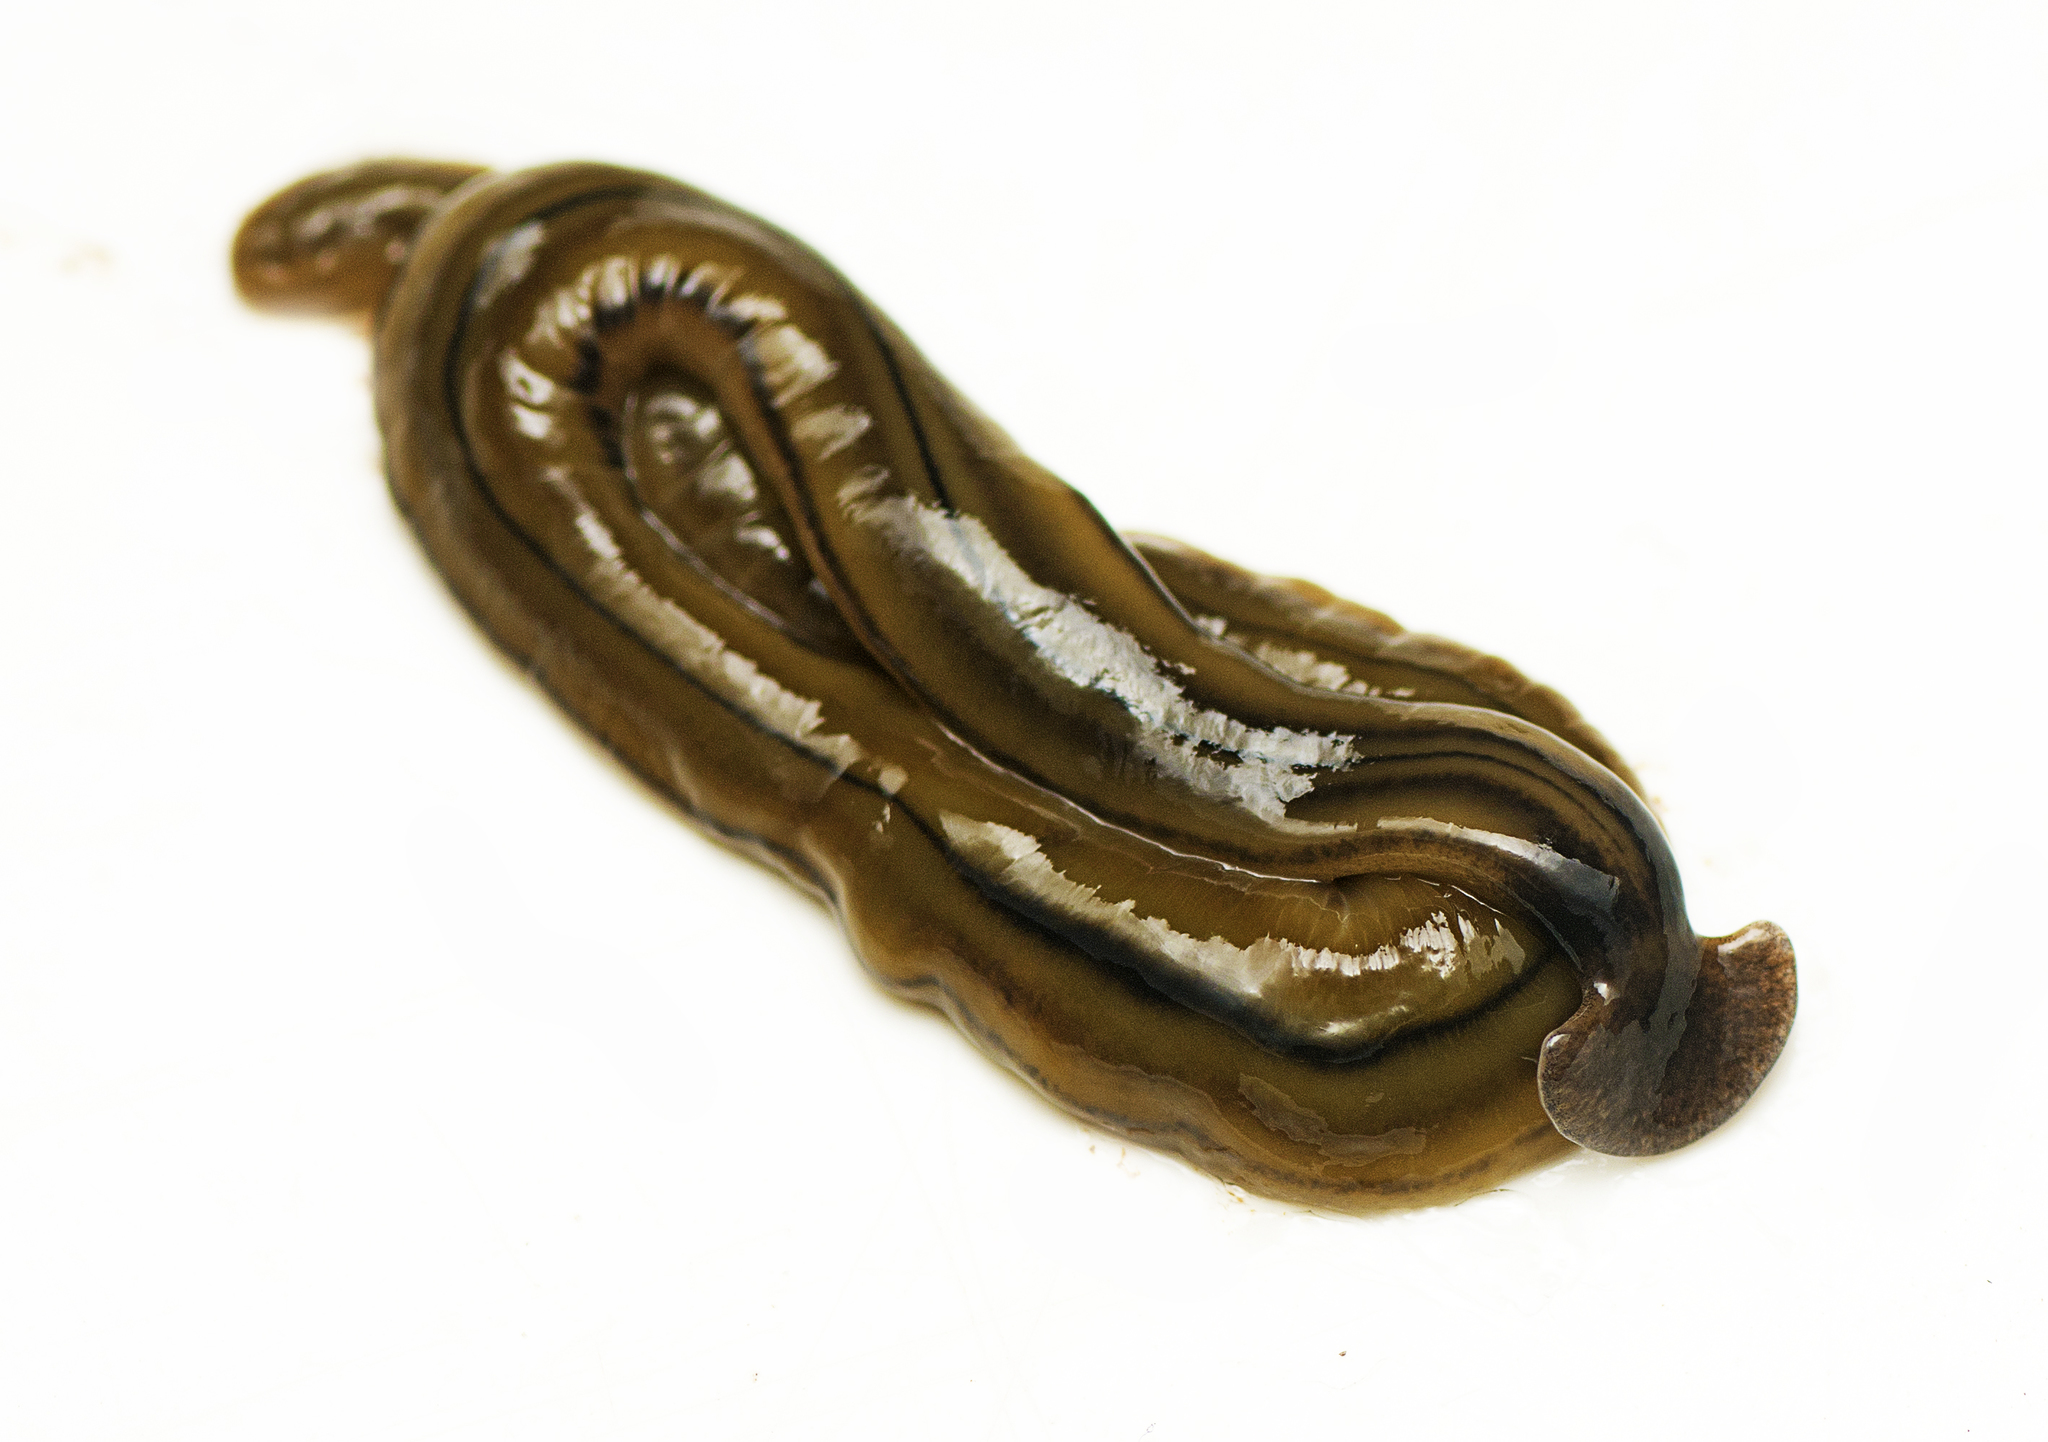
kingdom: Animalia
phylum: Platyhelminthes
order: Tricladida
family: Geoplanidae
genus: Bipalium
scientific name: Bipalium kewense
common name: Hammerhead flatworm
